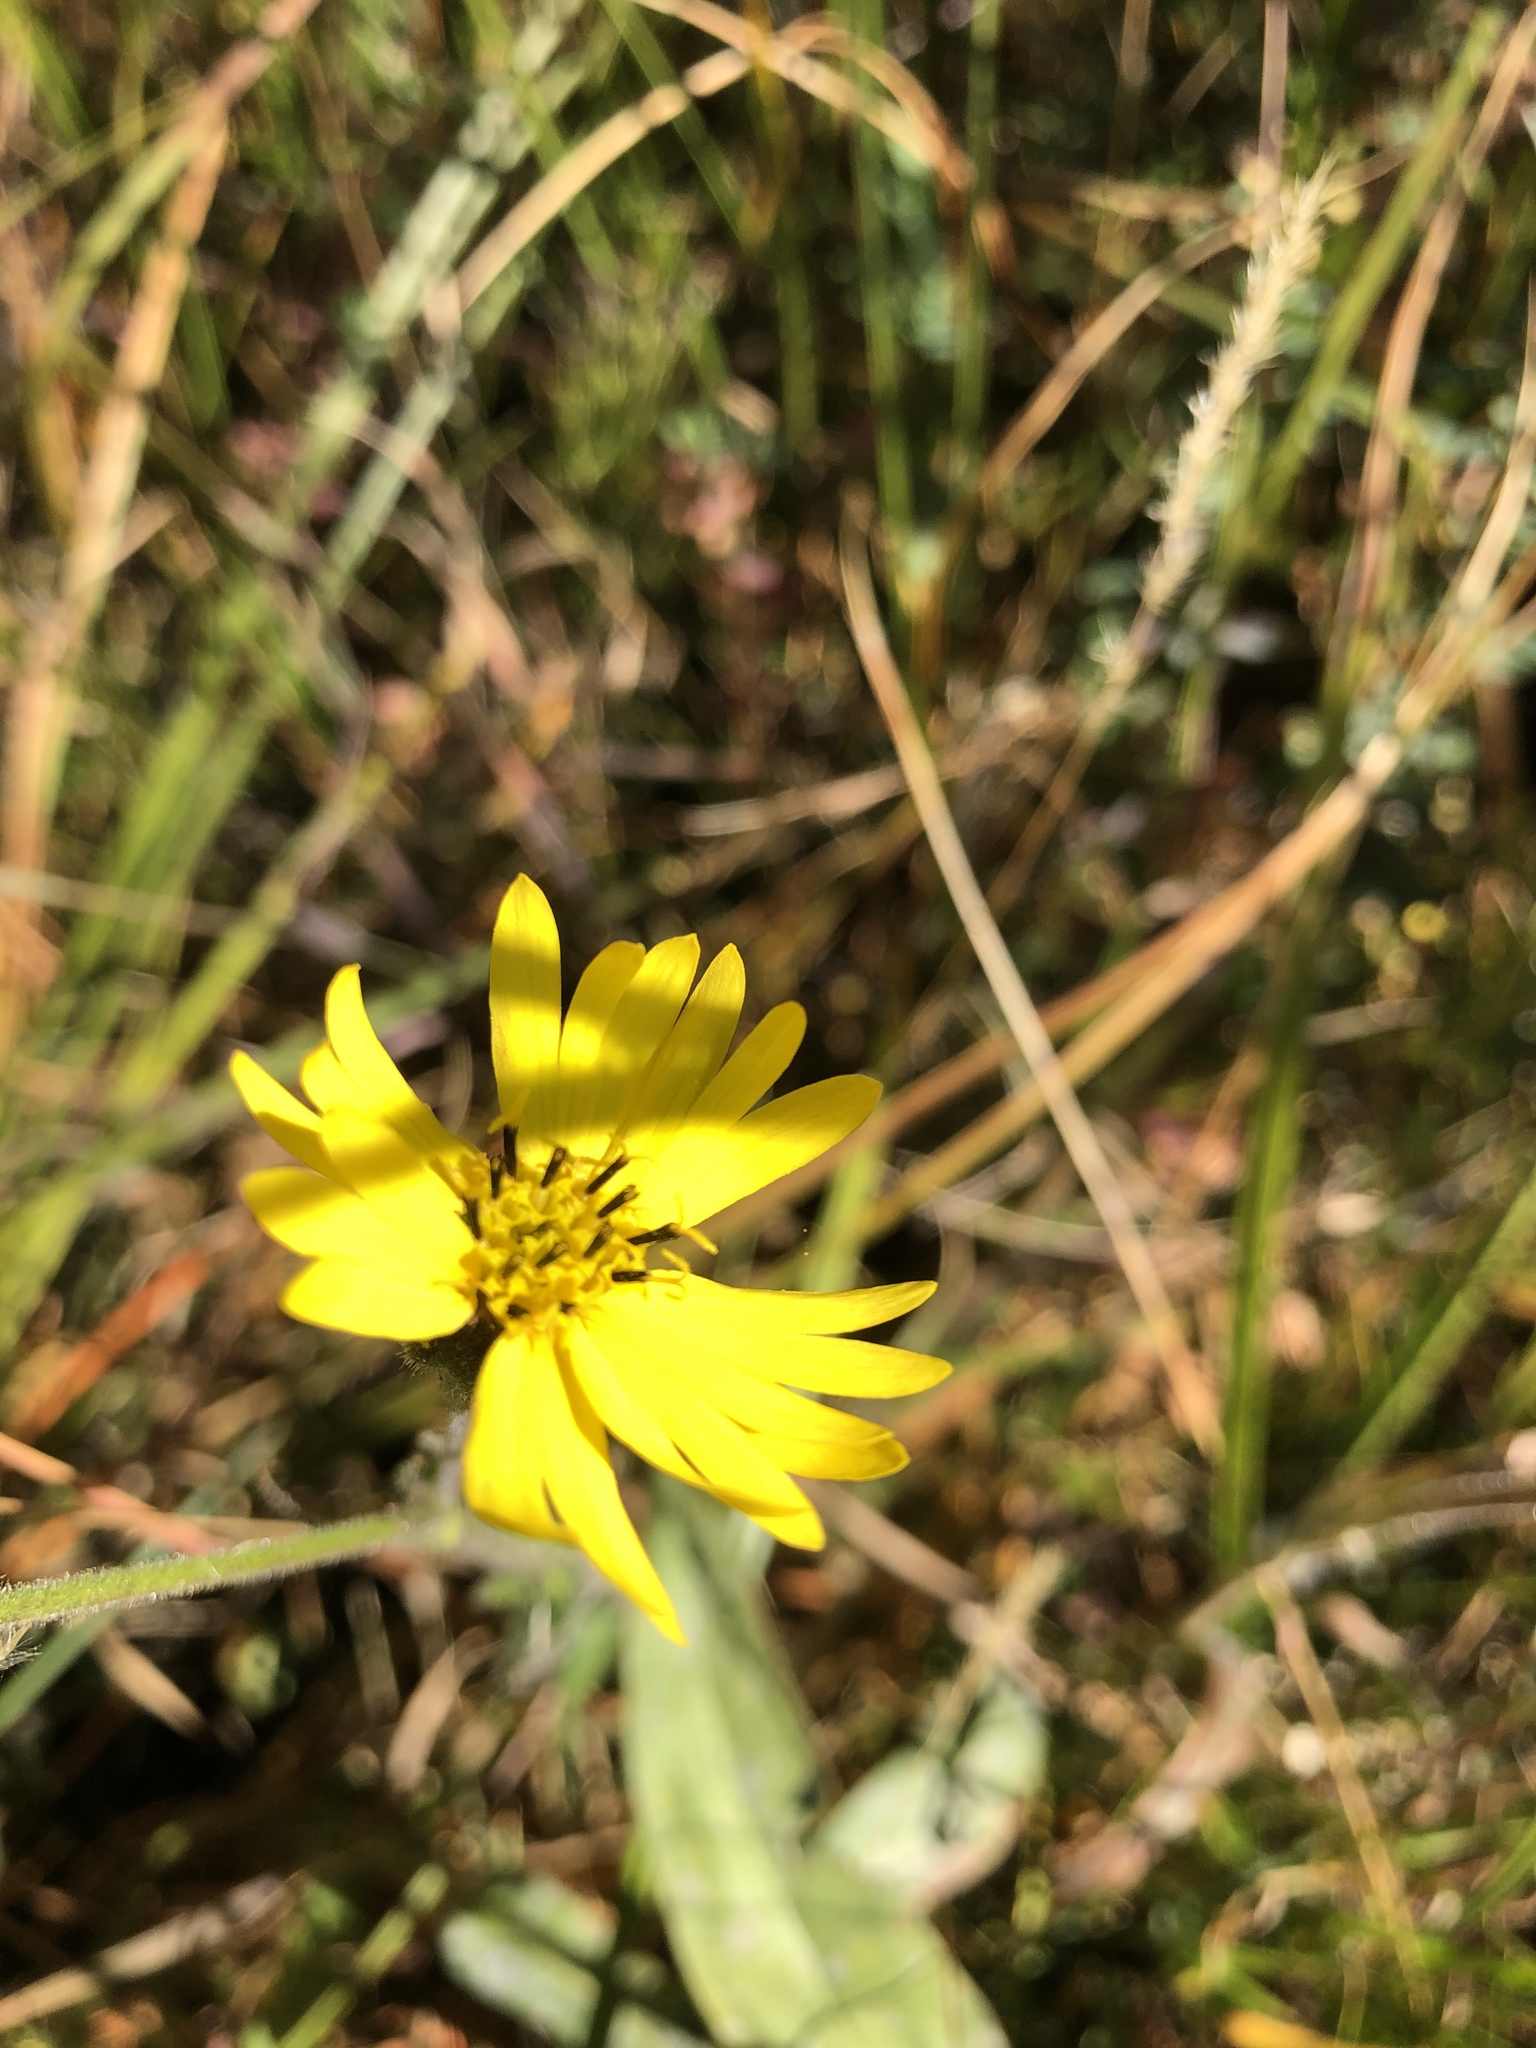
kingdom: Plantae
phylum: Tracheophyta
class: Magnoliopsida
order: Asterales
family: Asteraceae
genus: Kyhosia
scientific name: Kyhosia bolanderi
